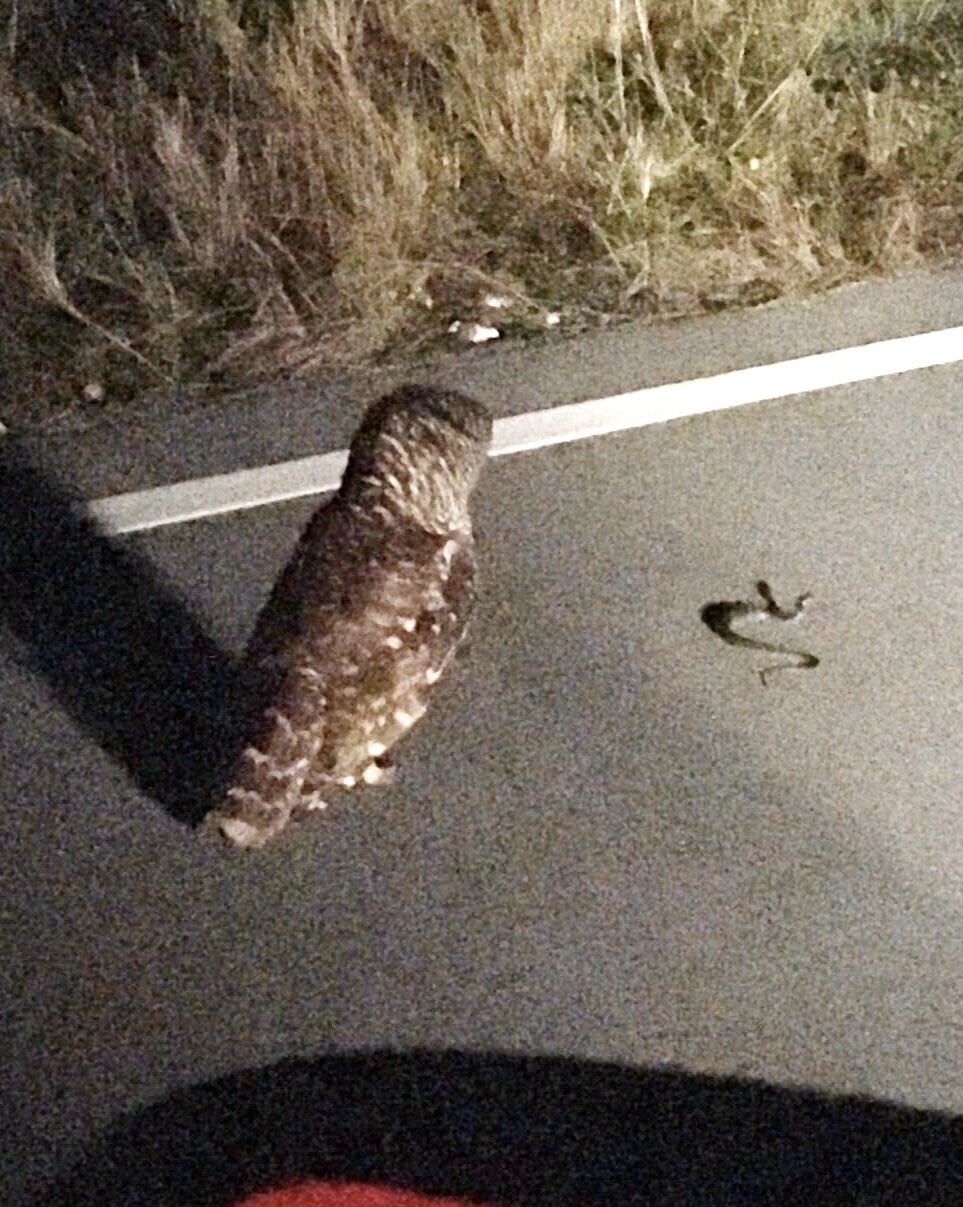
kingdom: Animalia
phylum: Chordata
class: Aves
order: Strigiformes
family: Strigidae
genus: Strix
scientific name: Strix varia
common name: Barred owl
